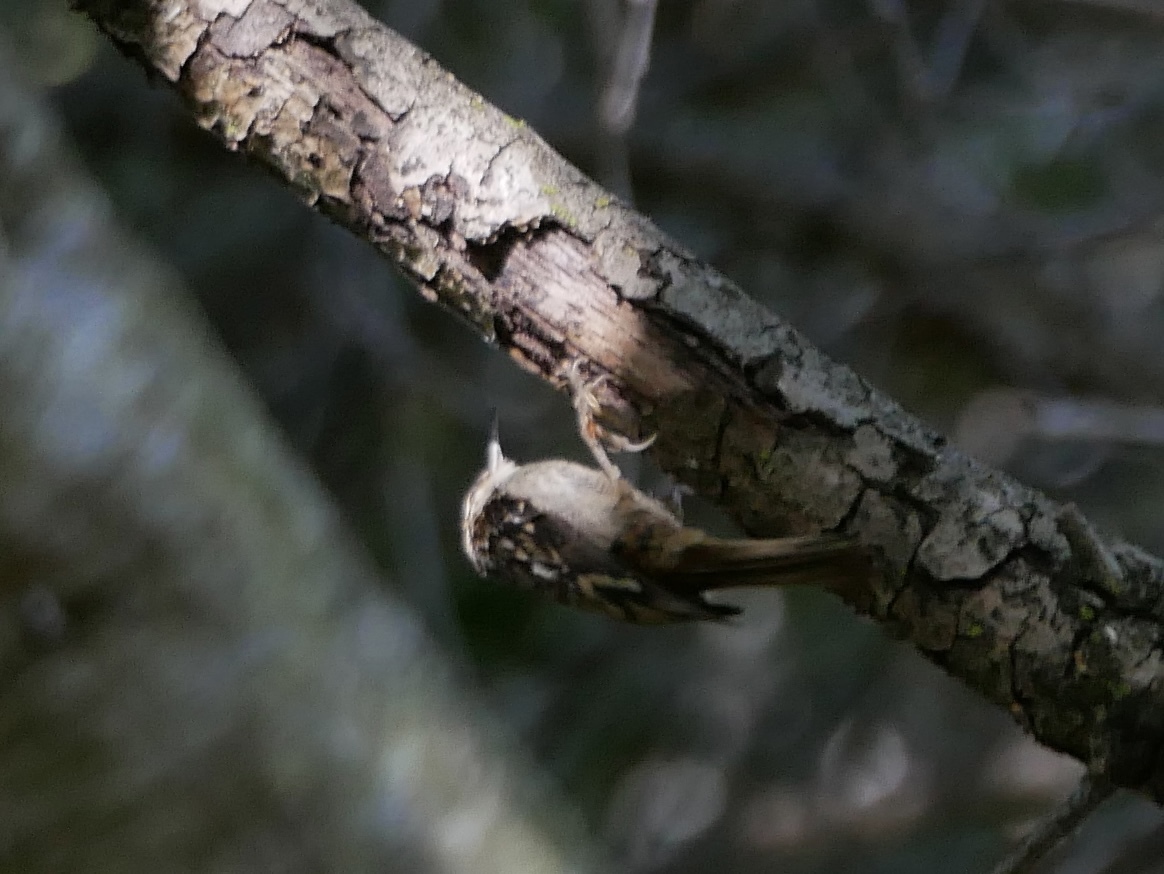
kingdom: Animalia
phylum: Chordata
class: Aves
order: Passeriformes
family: Certhiidae
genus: Certhia
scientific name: Certhia americana
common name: Brown creeper
